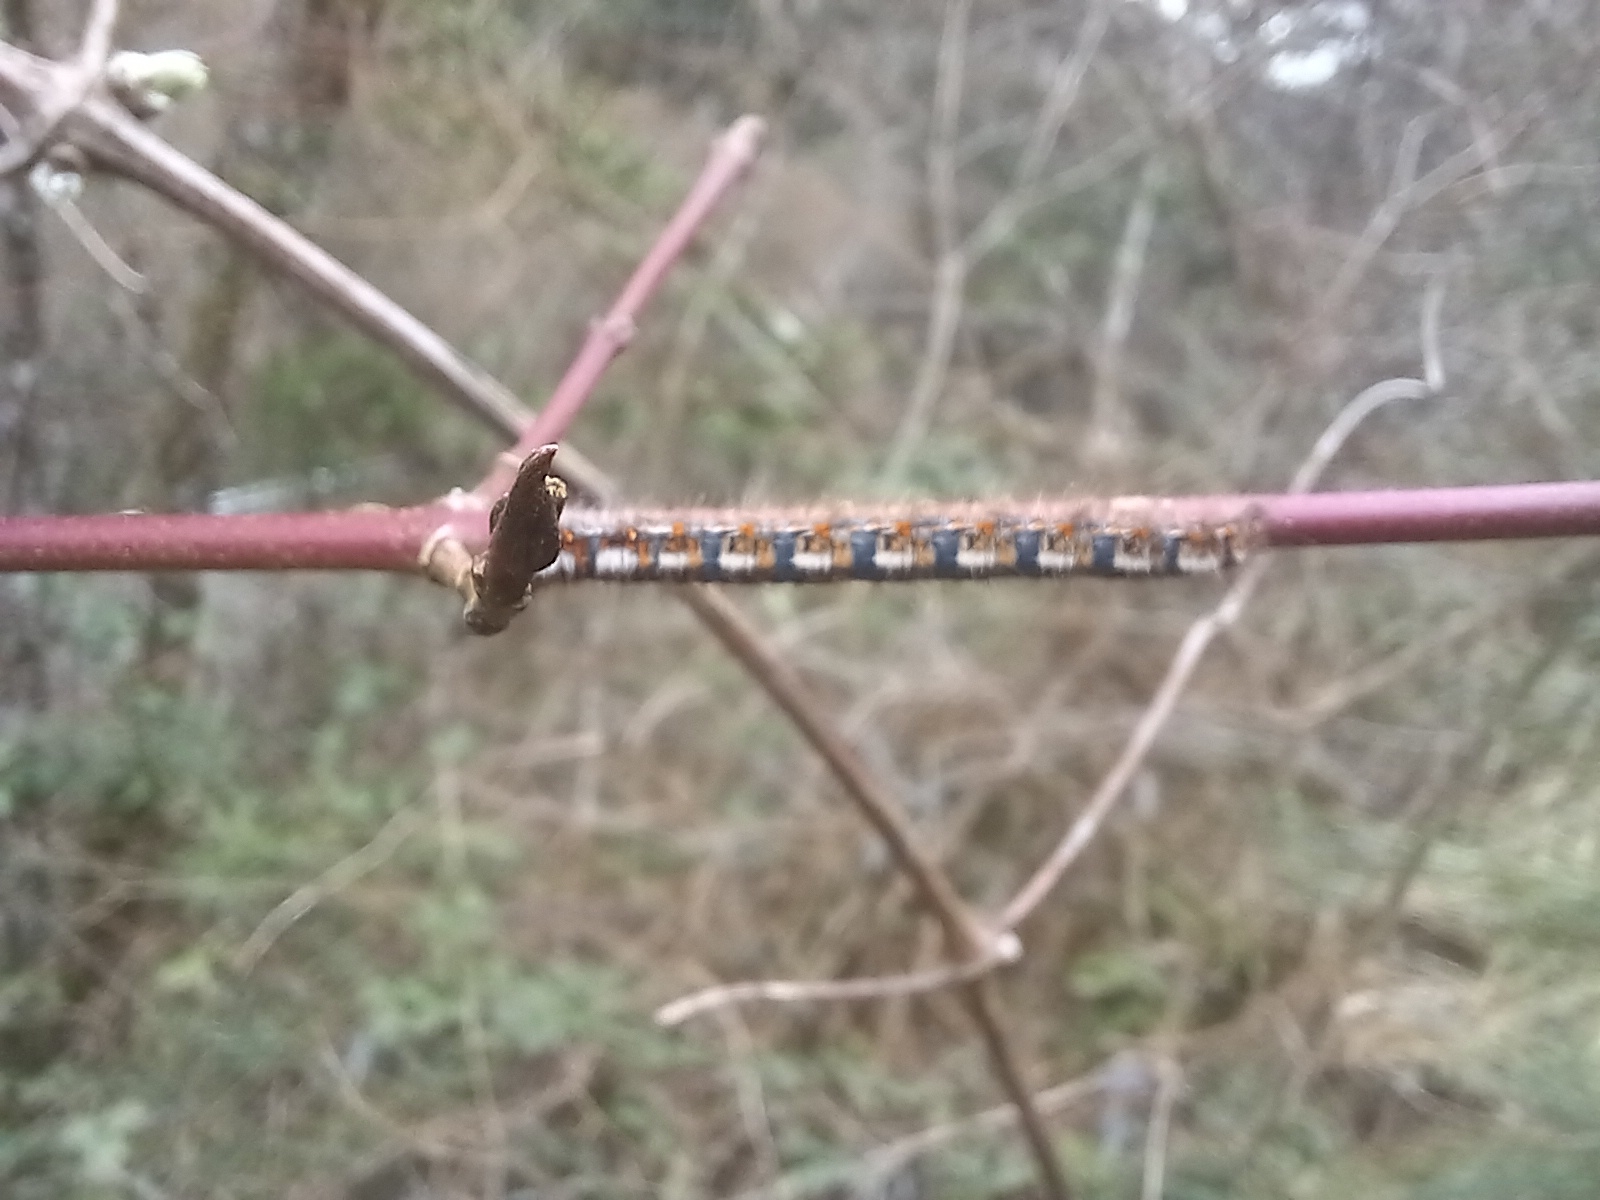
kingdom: Animalia
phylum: Arthropoda
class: Insecta
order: Lepidoptera
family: Lasiocampidae
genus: Lasiocampa
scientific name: Lasiocampa quercus
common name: Oak eggar
